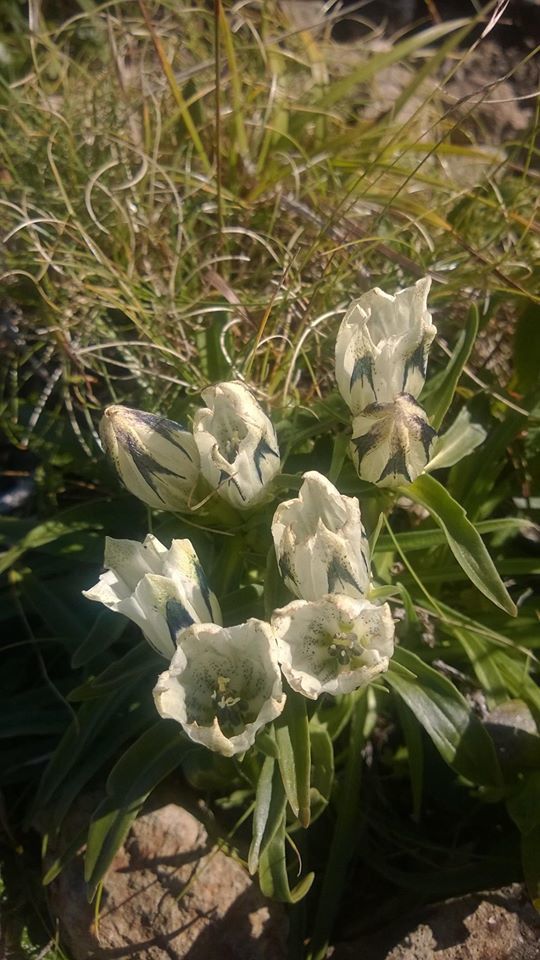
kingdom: Plantae
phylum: Tracheophyta
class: Magnoliopsida
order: Gentianales
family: Gentianaceae
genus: Gentiana
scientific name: Gentiana algida
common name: Arctic gentian
